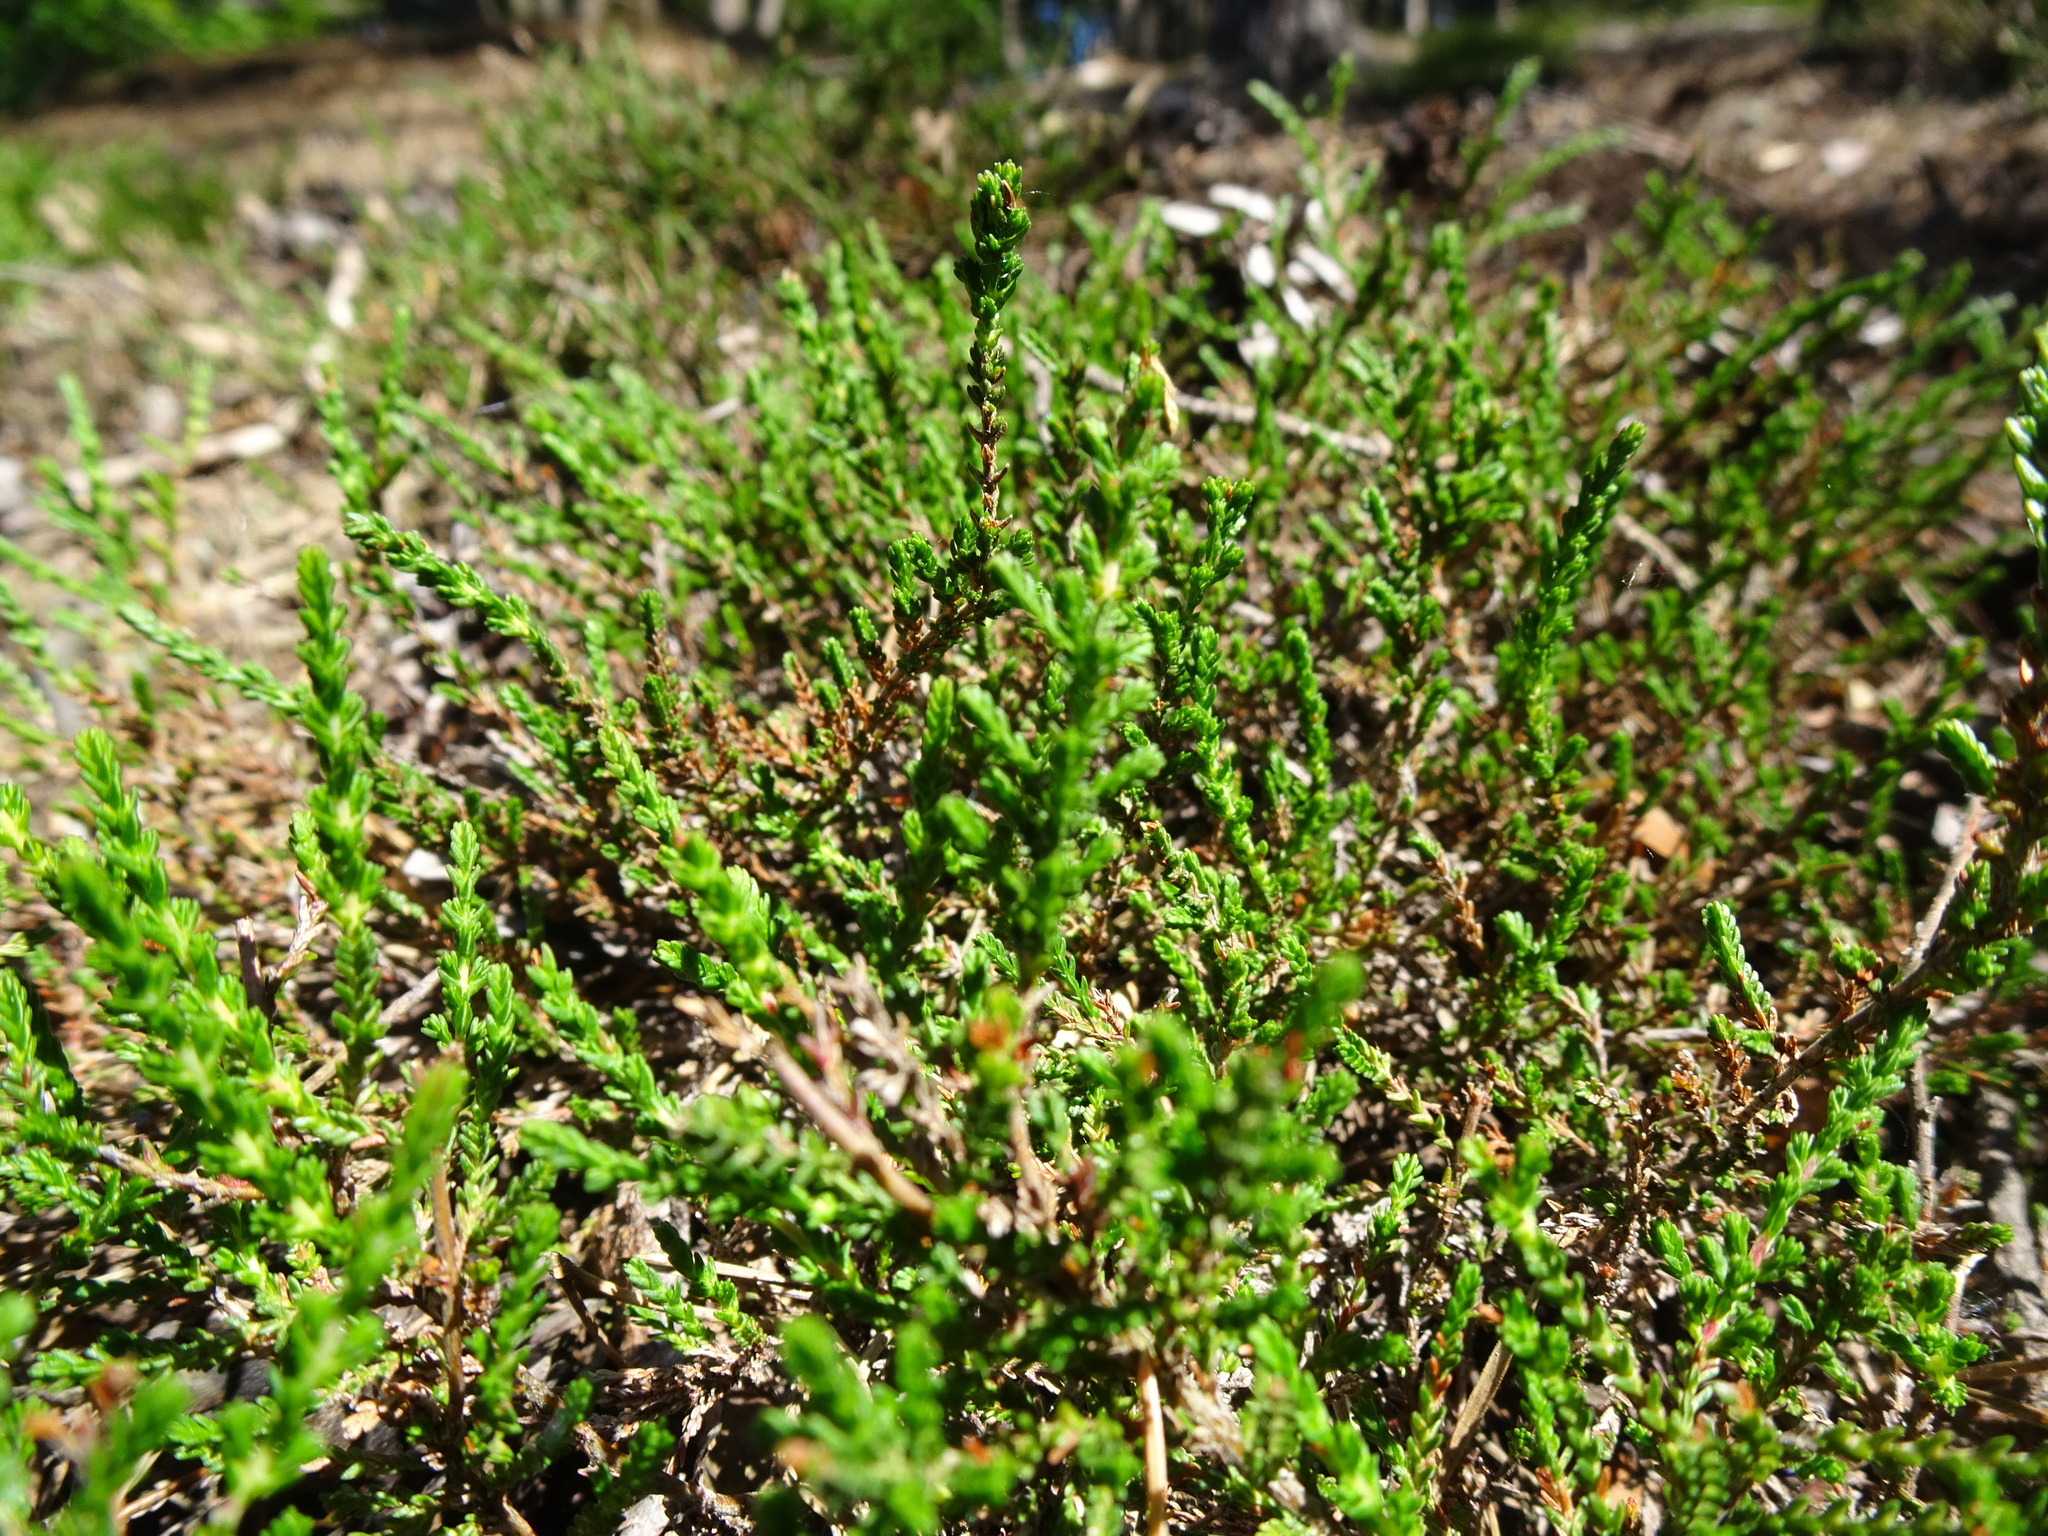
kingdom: Plantae
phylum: Tracheophyta
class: Magnoliopsida
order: Ericales
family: Ericaceae
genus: Calluna
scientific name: Calluna vulgaris
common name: Heather
